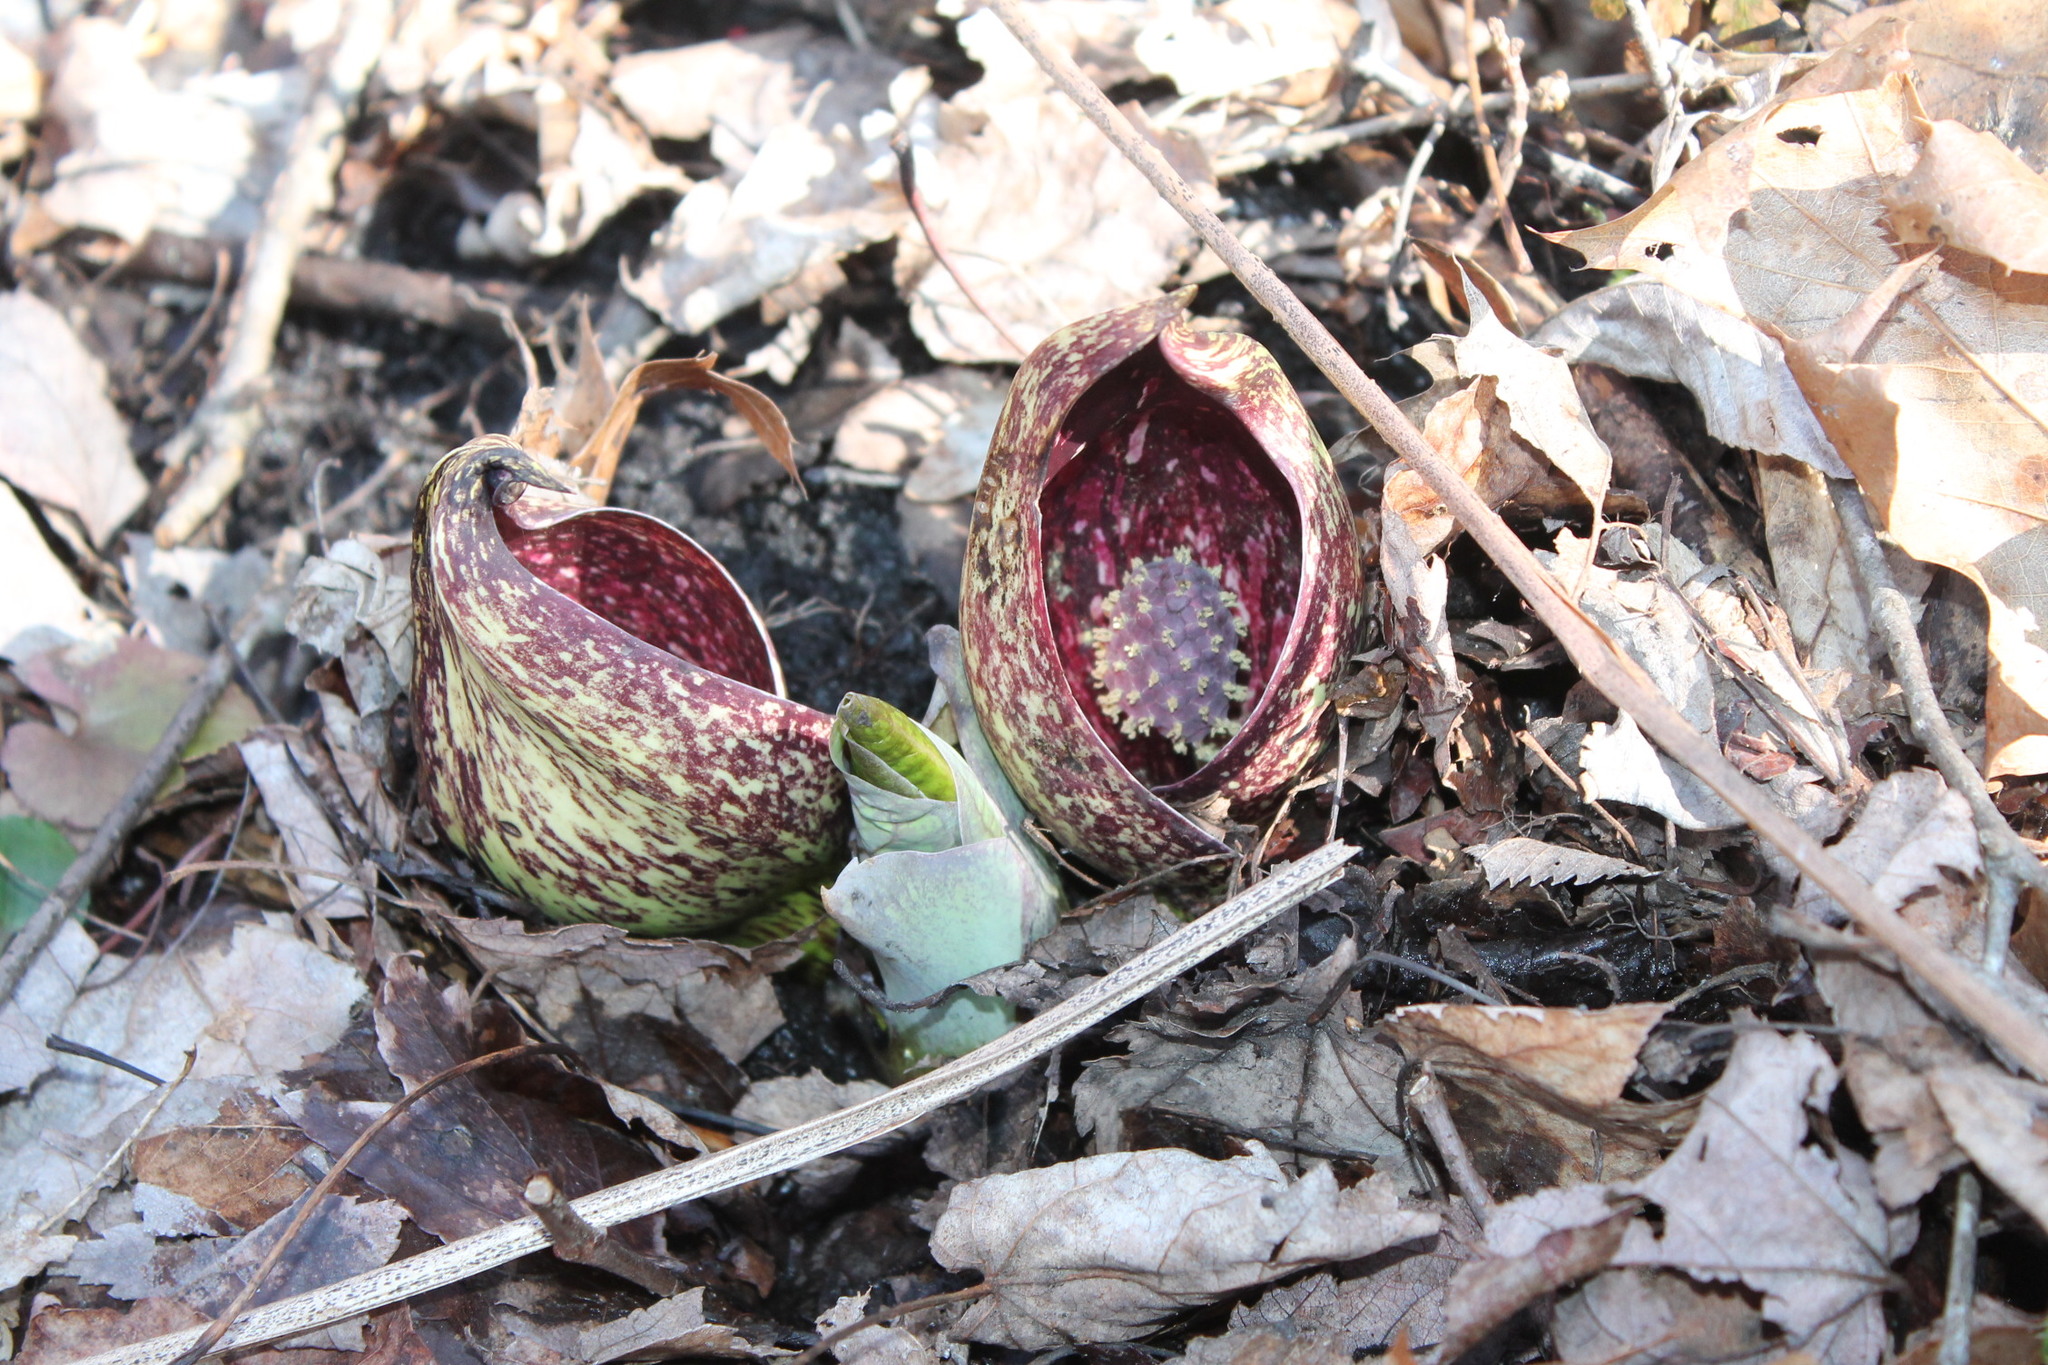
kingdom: Plantae
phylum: Tracheophyta
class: Liliopsida
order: Alismatales
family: Araceae
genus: Symplocarpus
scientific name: Symplocarpus foetidus
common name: Eastern skunk cabbage
